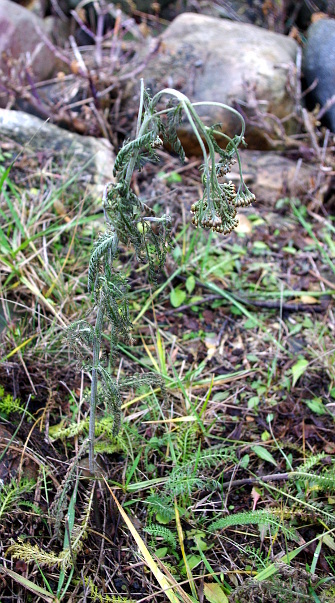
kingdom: Plantae
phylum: Tracheophyta
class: Magnoliopsida
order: Asterales
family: Asteraceae
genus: Achillea
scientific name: Achillea millefolium
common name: Yarrow
